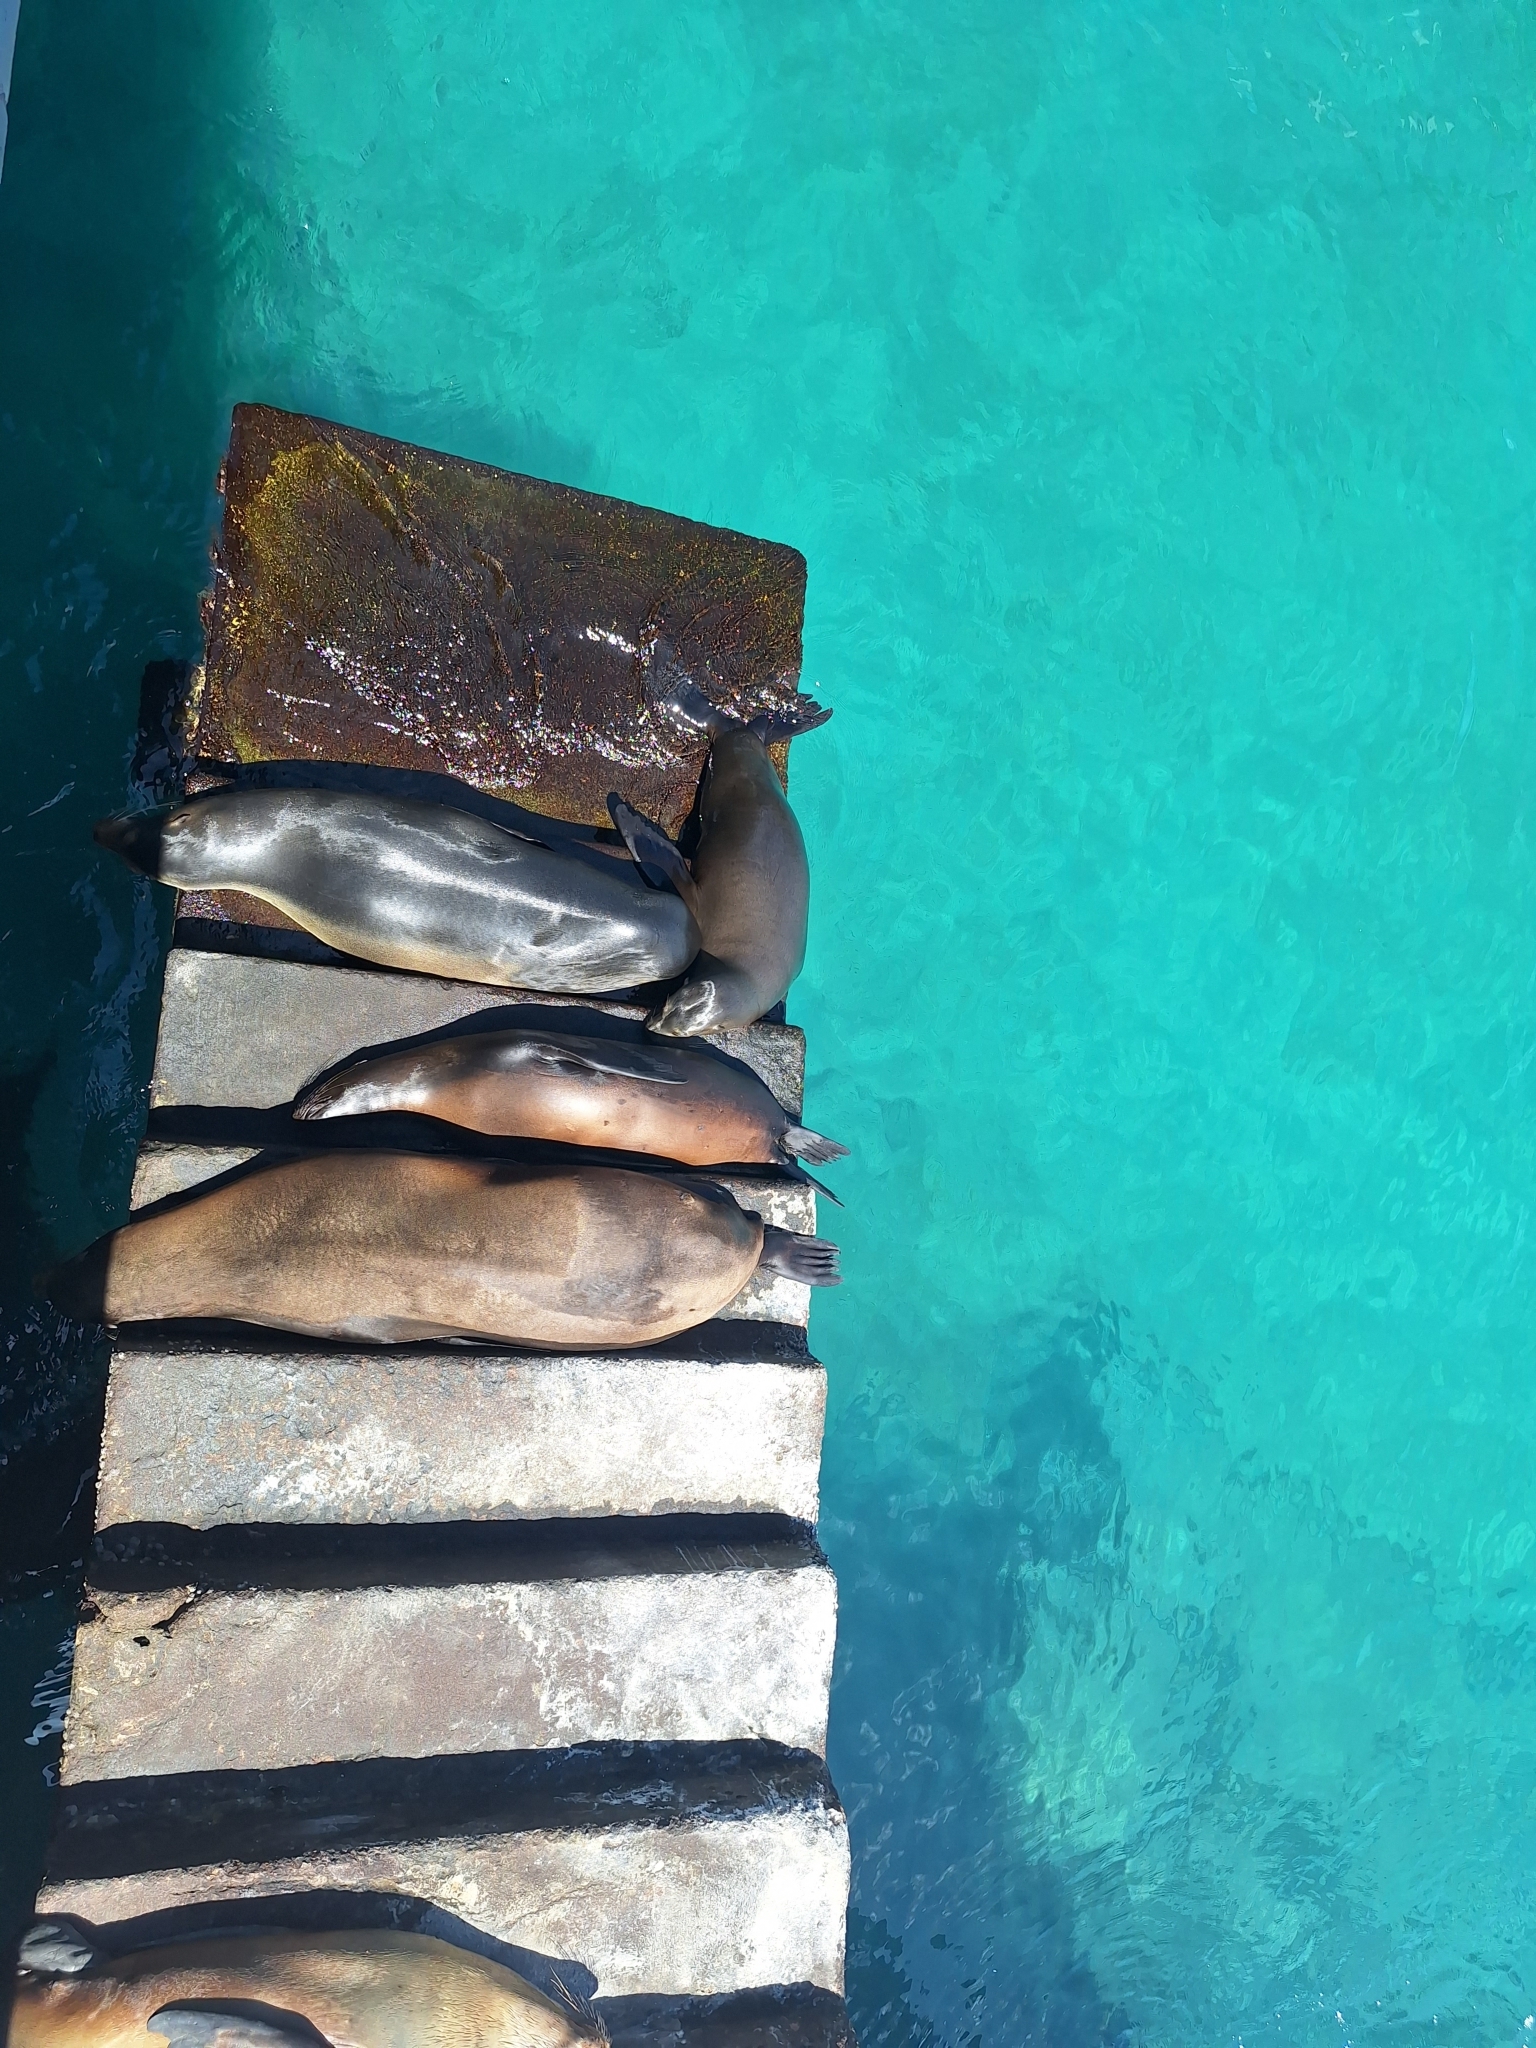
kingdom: Animalia
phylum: Chordata
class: Mammalia
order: Carnivora
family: Otariidae
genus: Zalophus
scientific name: Zalophus wollebaeki
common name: Galapagos sea lion
